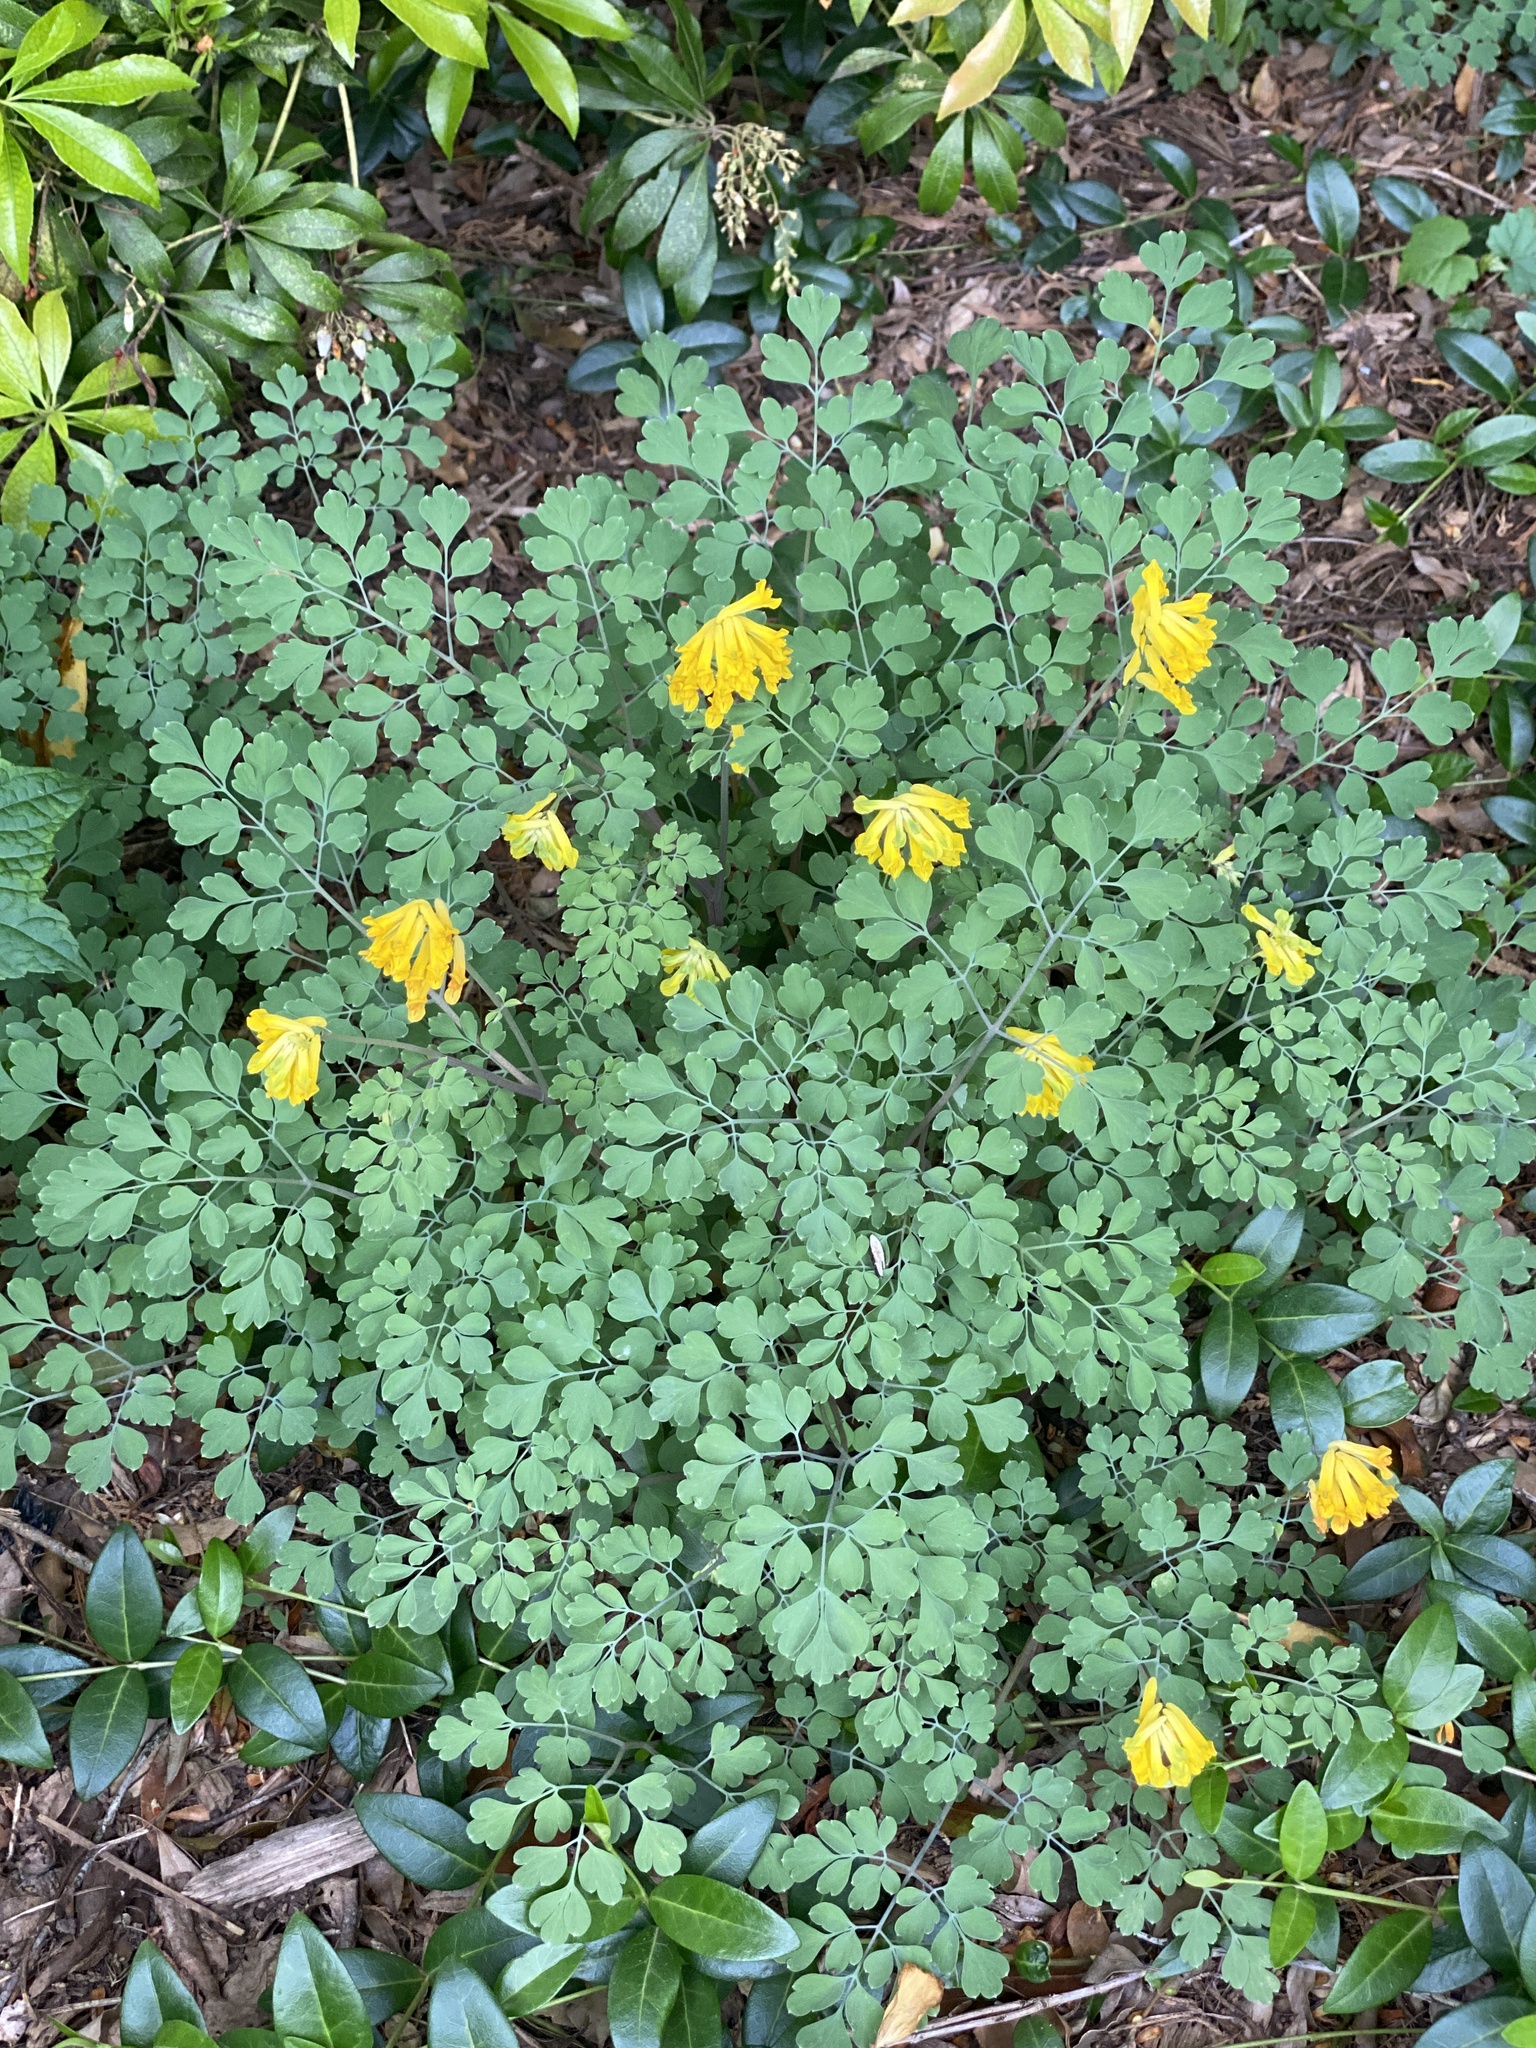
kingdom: Plantae
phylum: Tracheophyta
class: Magnoliopsida
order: Ranunculales
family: Papaveraceae
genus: Pseudofumaria
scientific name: Pseudofumaria lutea
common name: Yellow corydalis
